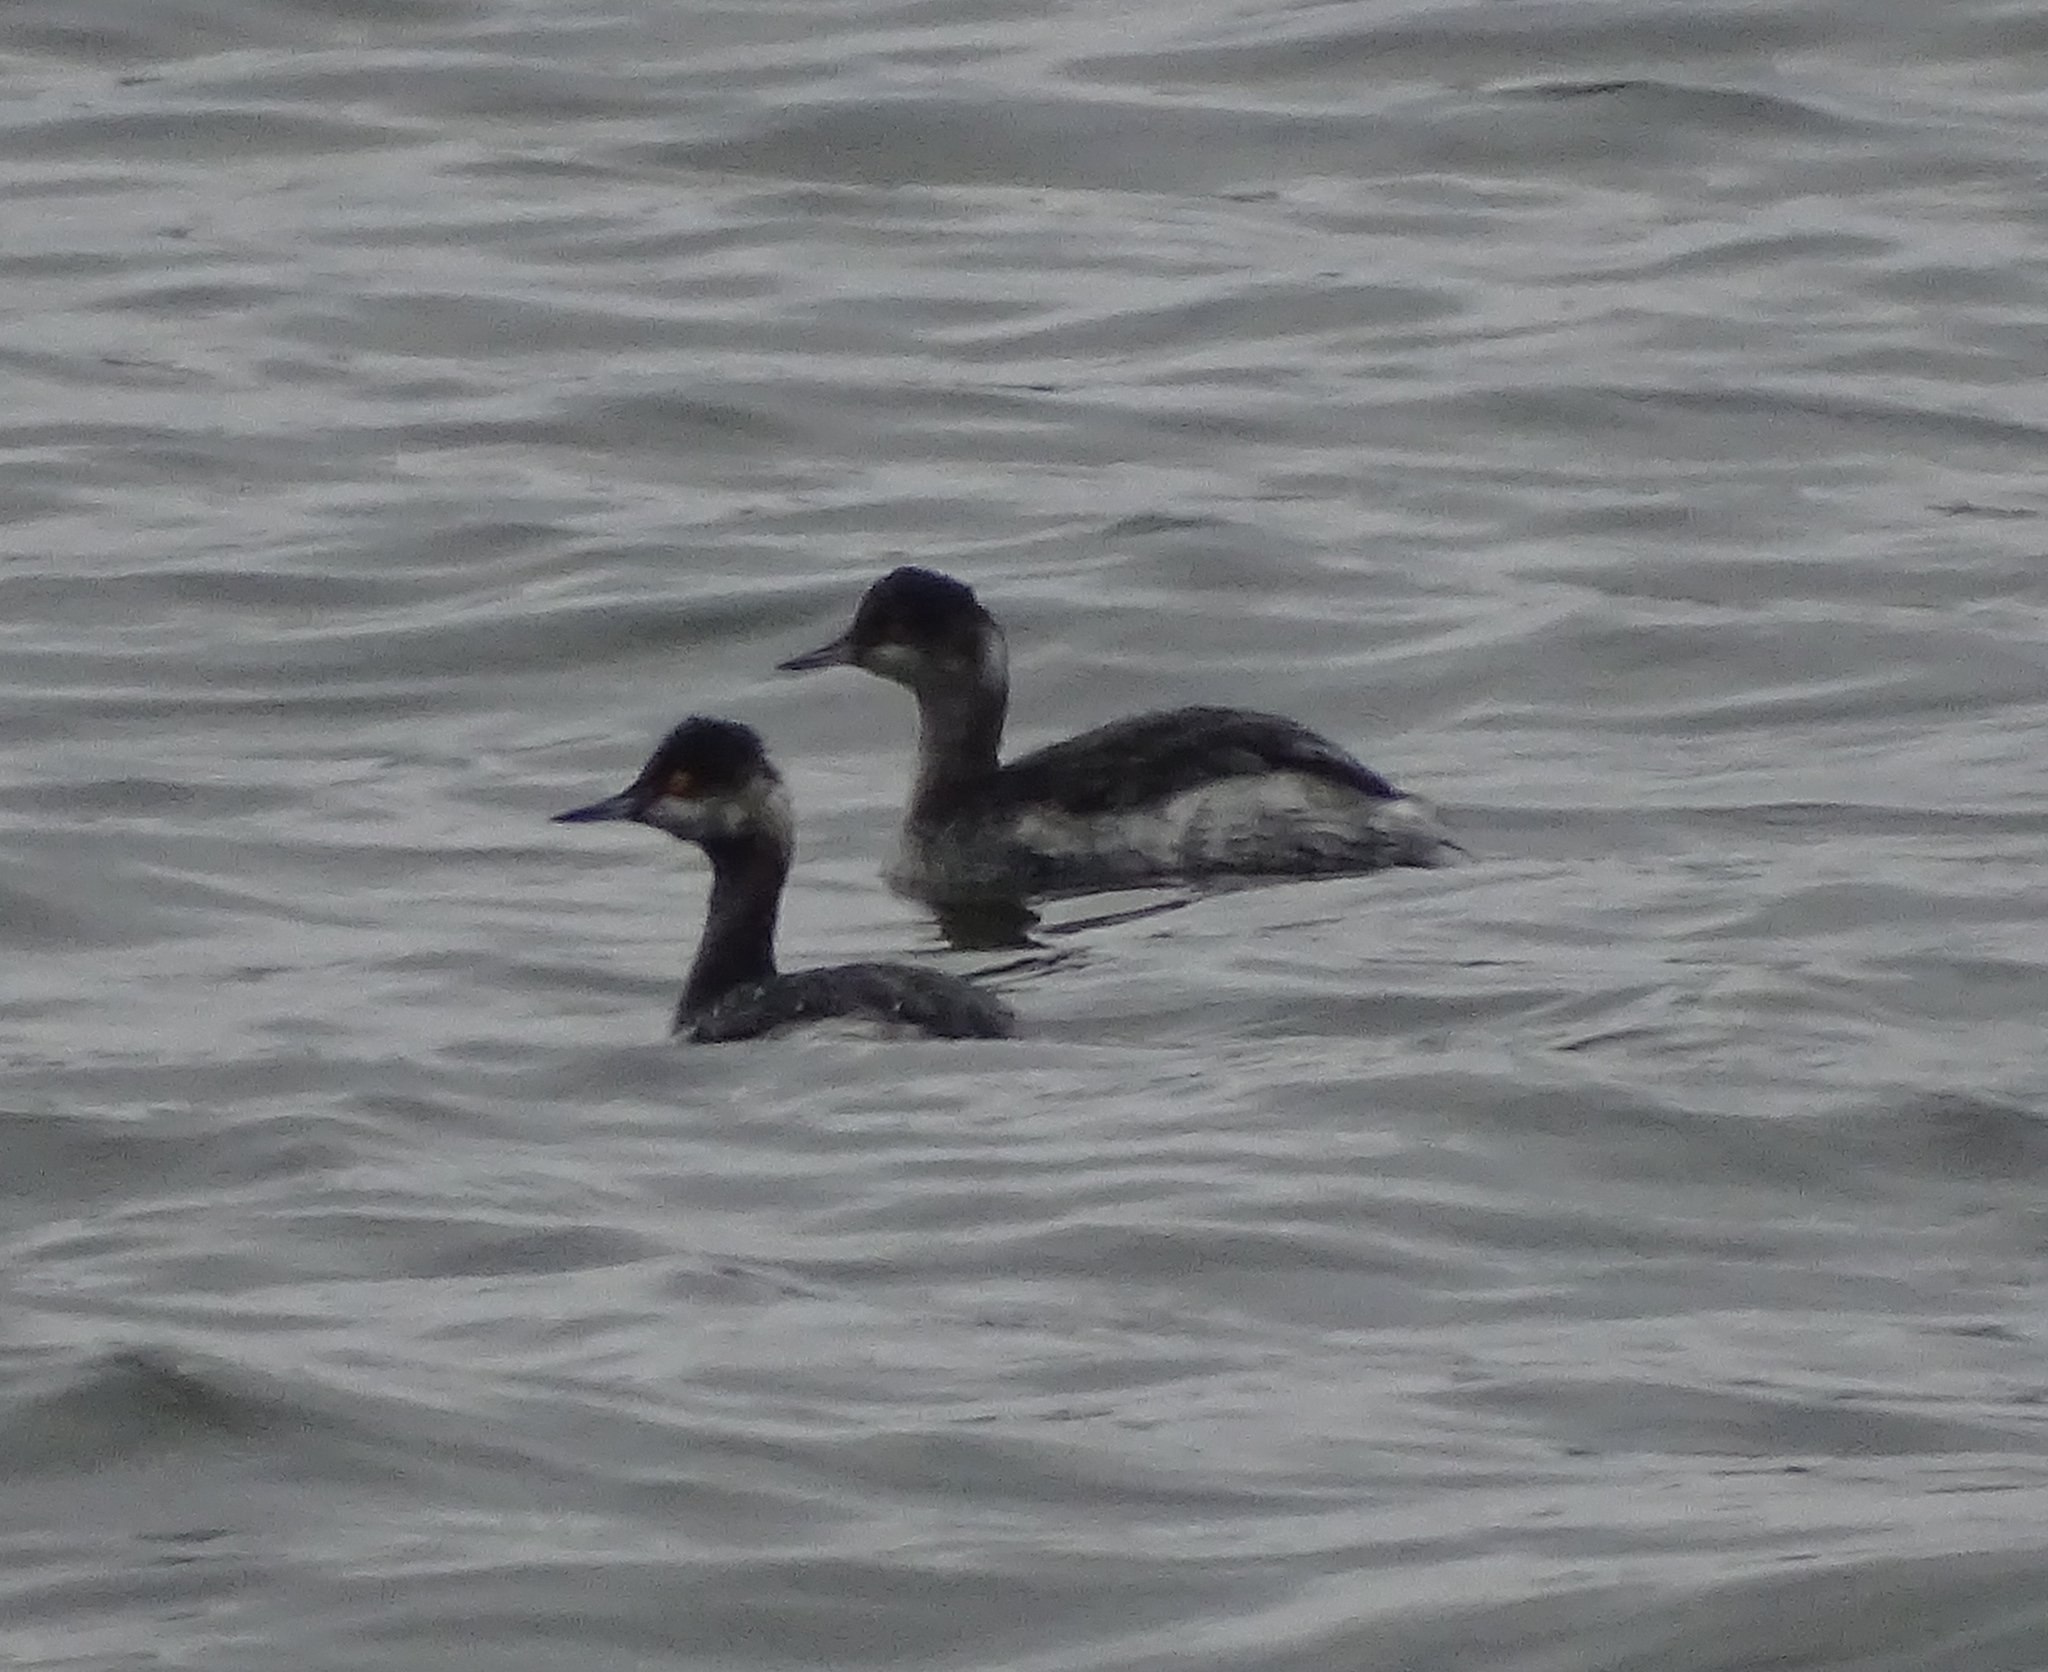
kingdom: Animalia
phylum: Chordata
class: Aves
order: Podicipediformes
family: Podicipedidae
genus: Podiceps
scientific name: Podiceps nigricollis
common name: Black-necked grebe
